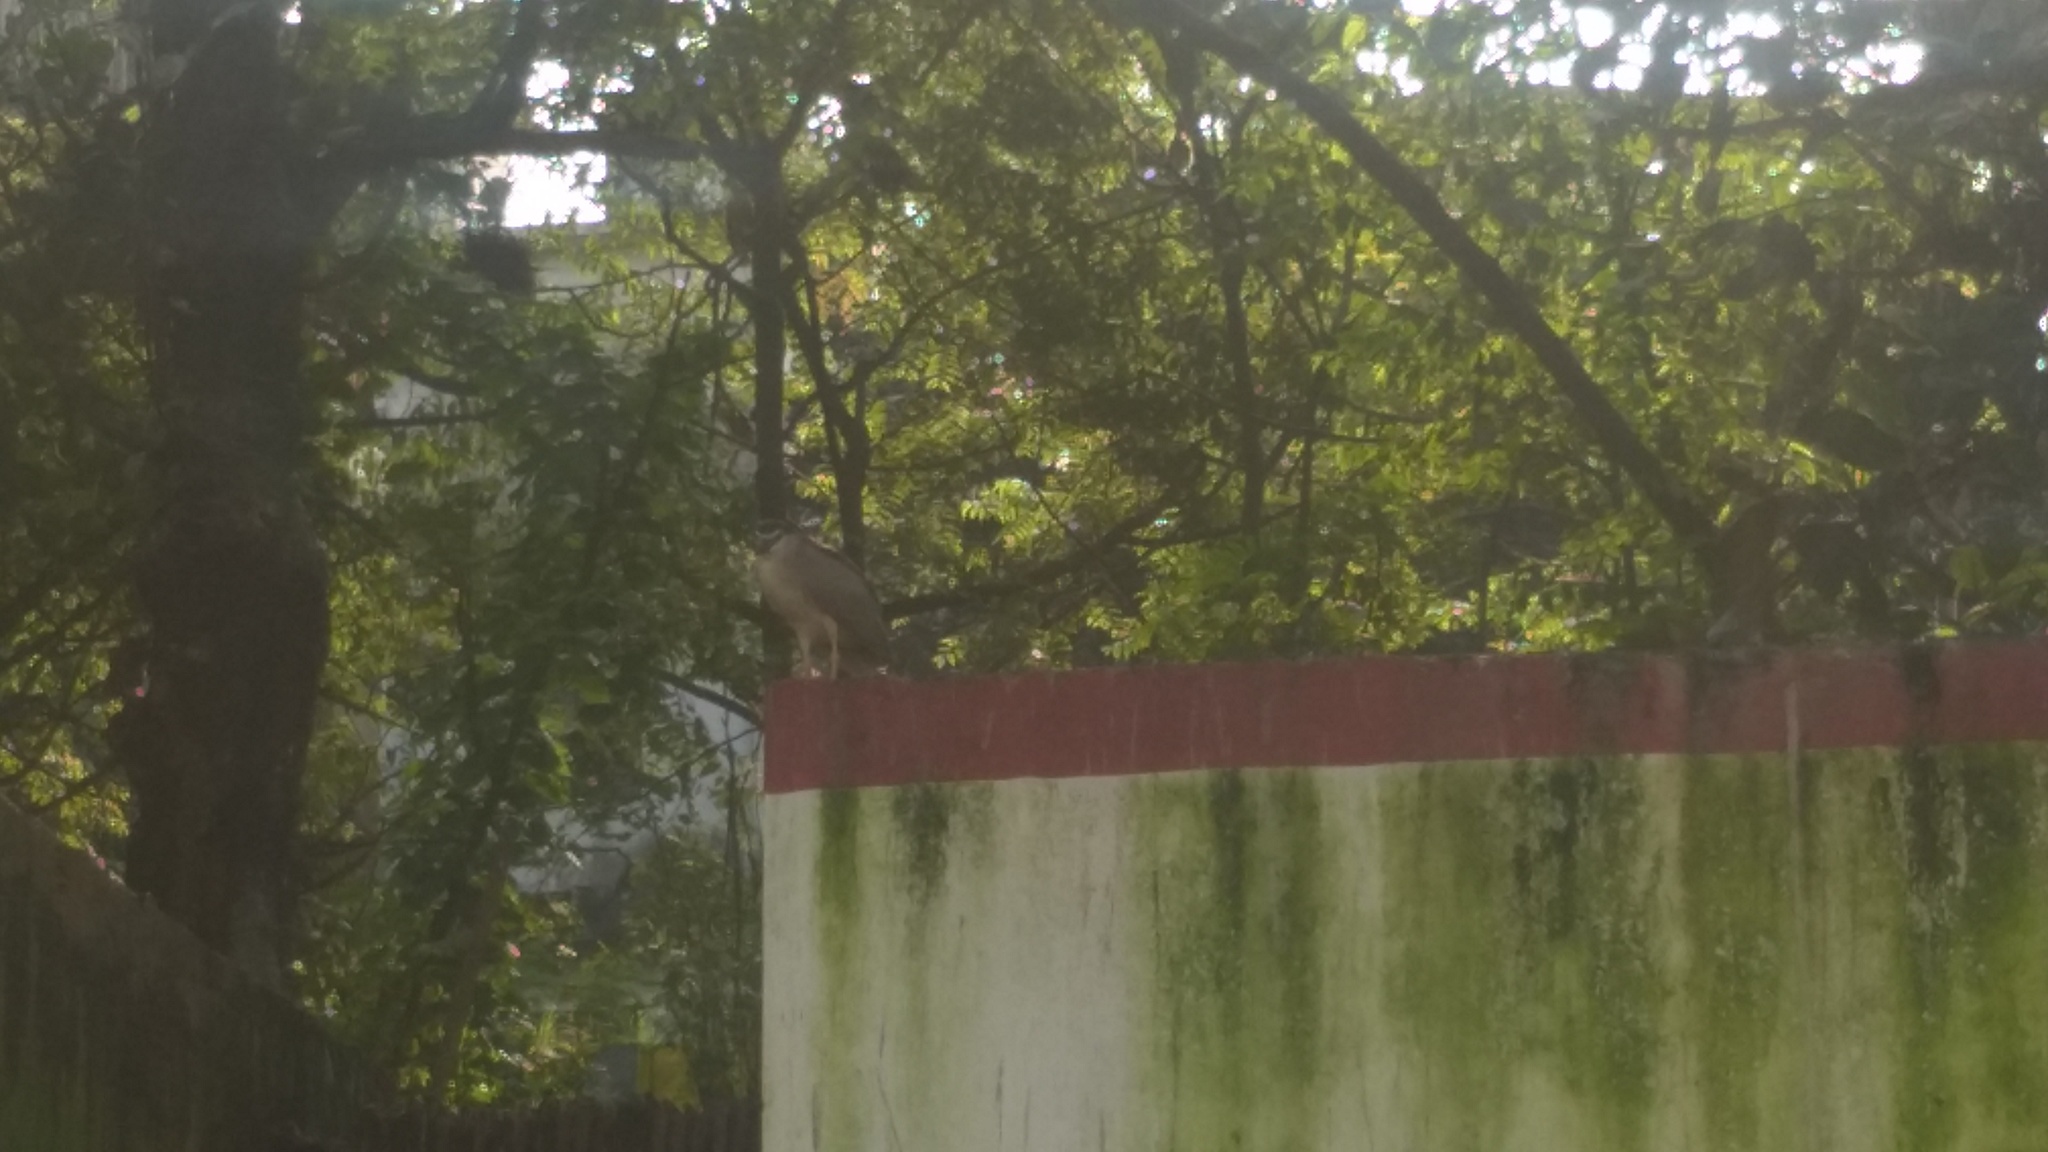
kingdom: Animalia
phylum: Chordata
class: Aves
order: Pelecaniformes
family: Ardeidae
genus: Nycticorax
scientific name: Nycticorax nycticorax
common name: Black-crowned night heron
